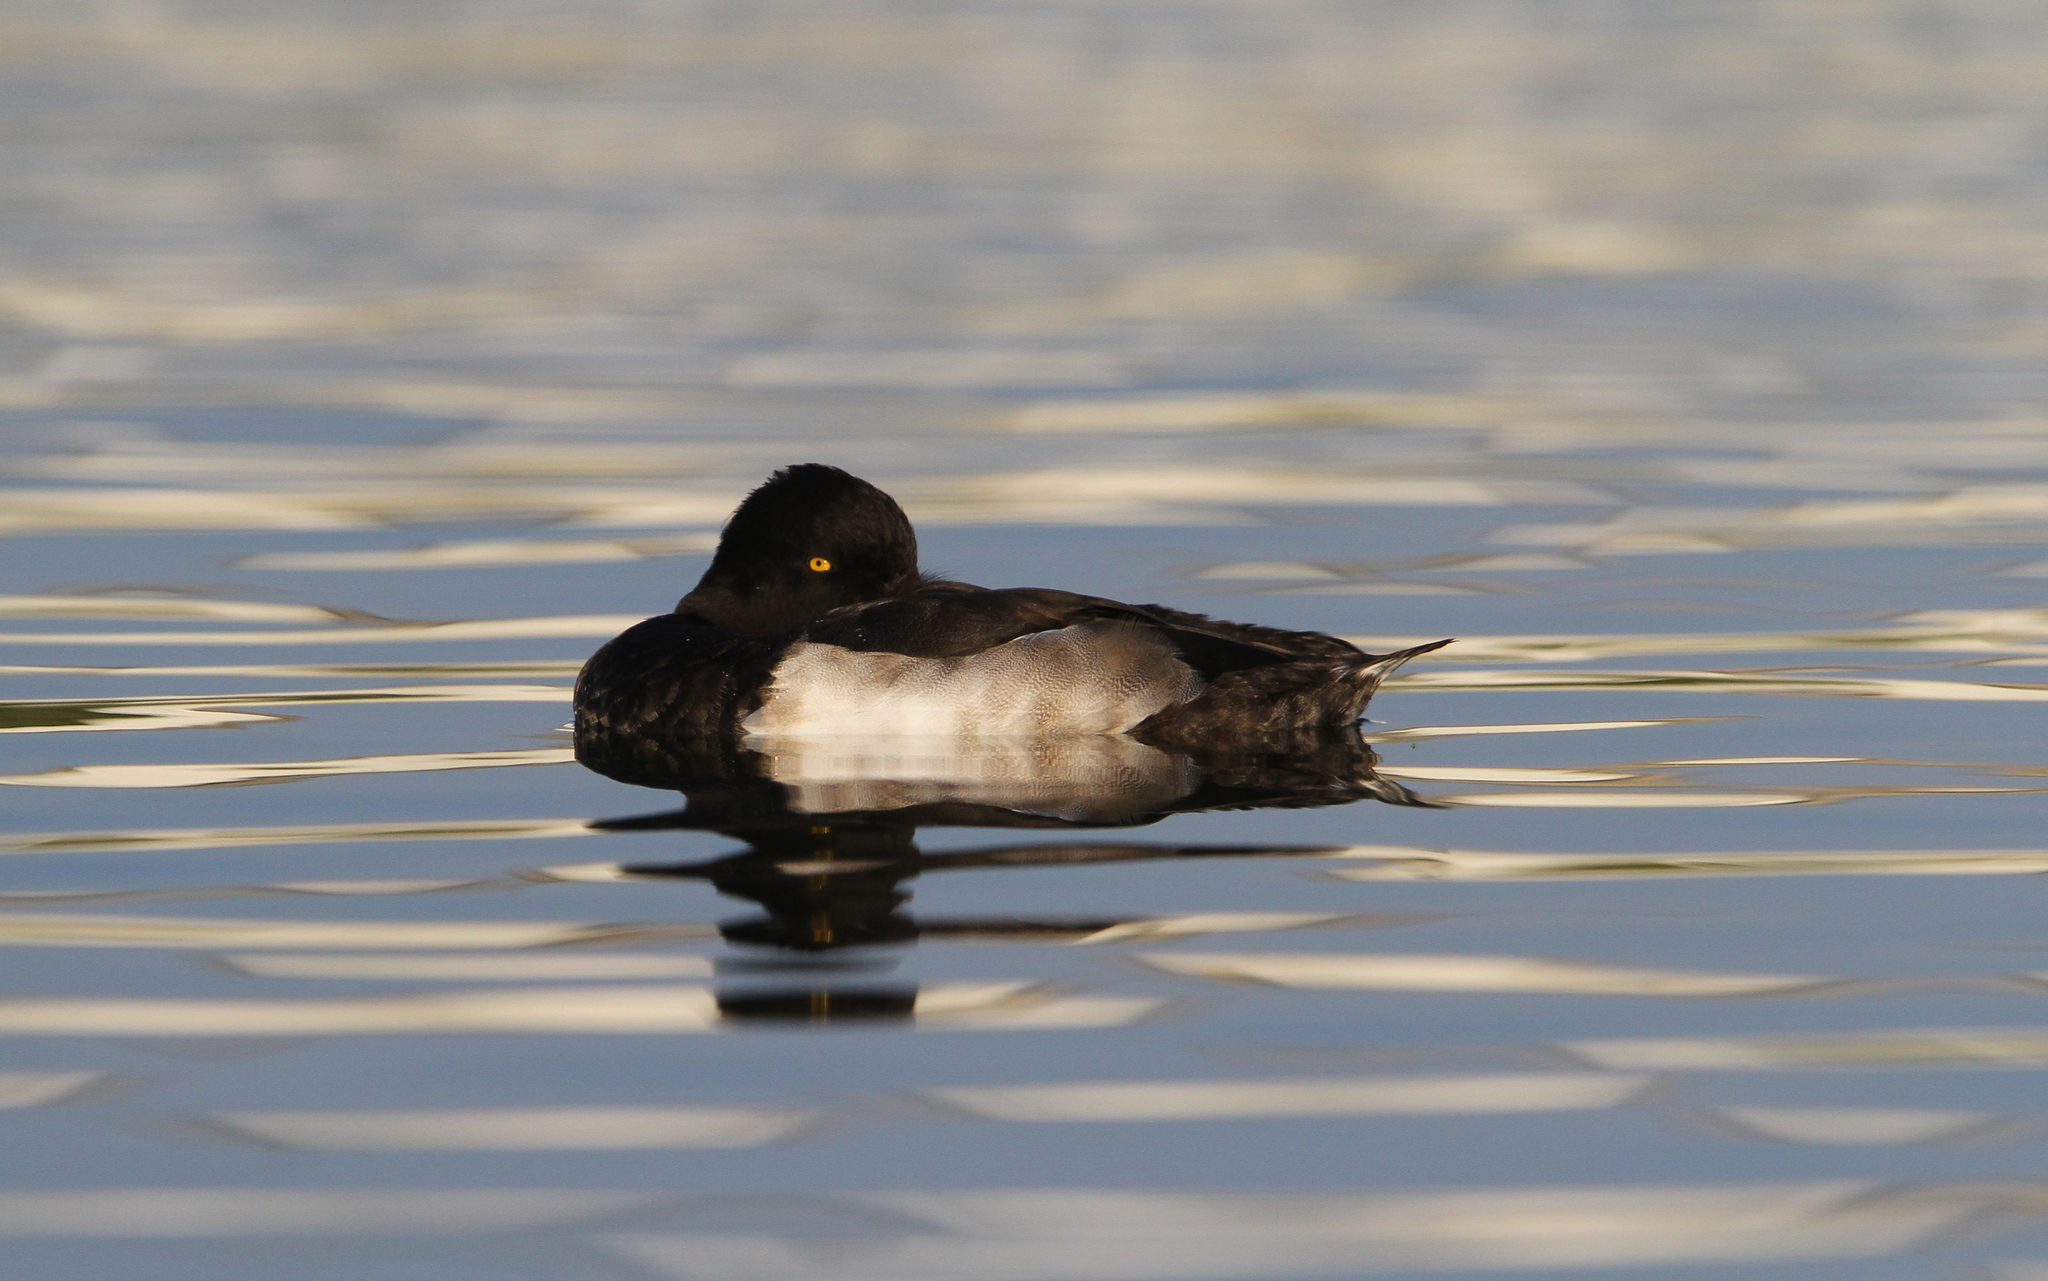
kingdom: Animalia
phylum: Chordata
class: Aves
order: Anseriformes
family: Anatidae
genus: Aythya
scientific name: Aythya fuligula
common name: Tufted duck
